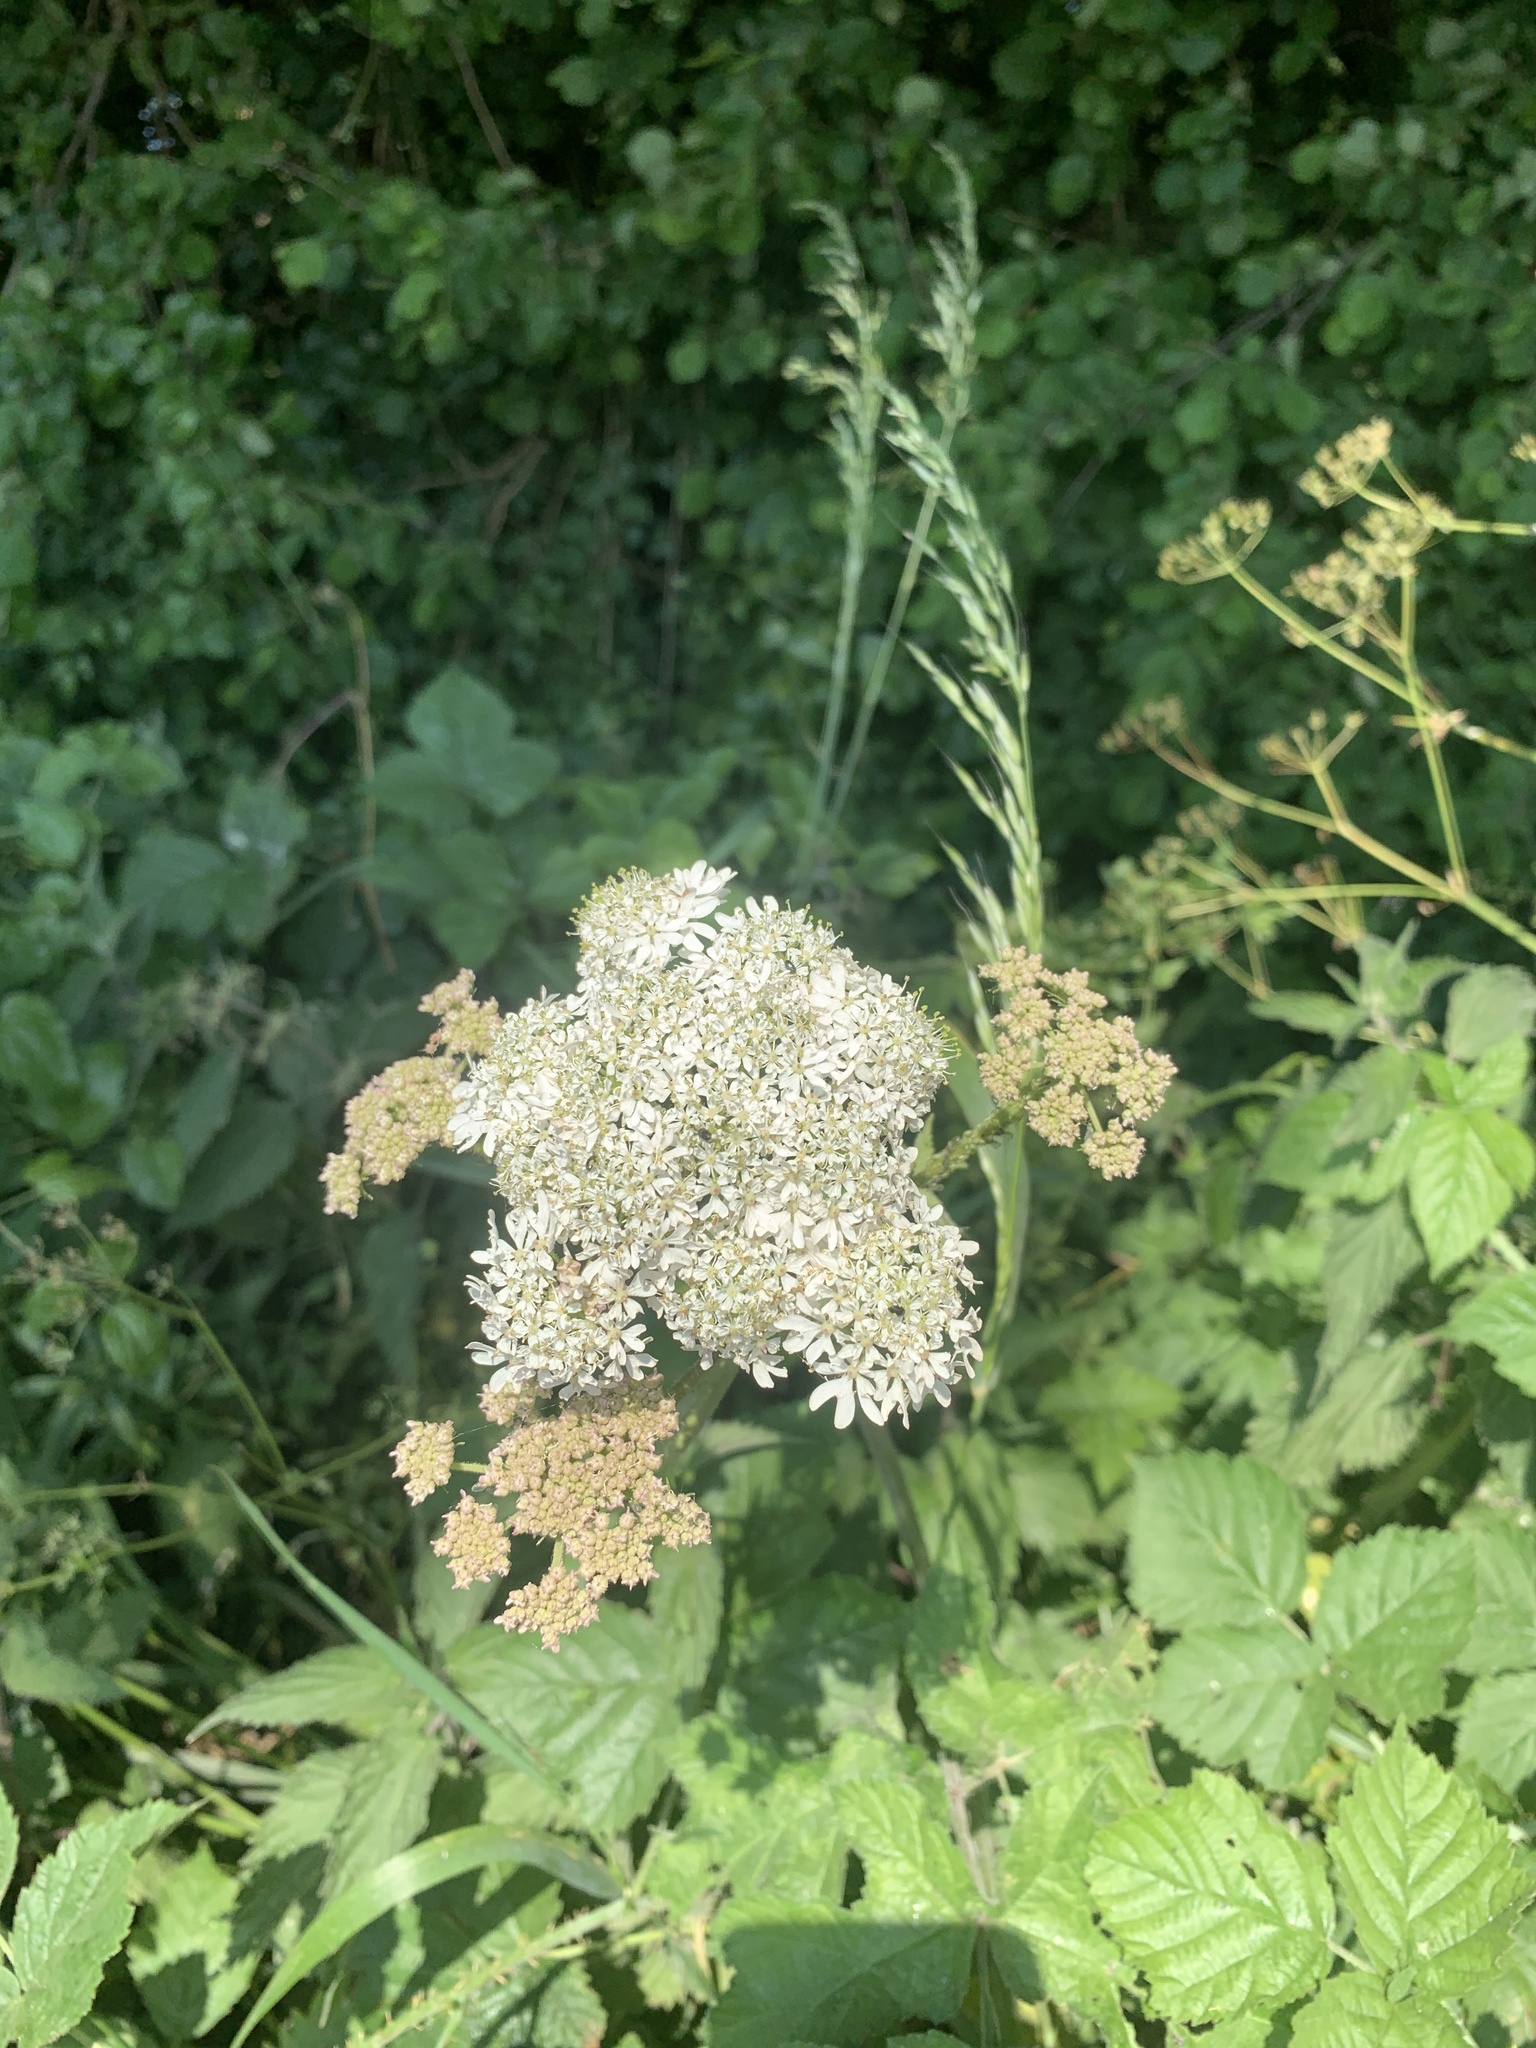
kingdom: Plantae
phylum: Tracheophyta
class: Magnoliopsida
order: Apiales
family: Apiaceae
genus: Heracleum
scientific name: Heracleum sphondylium
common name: Hogweed
